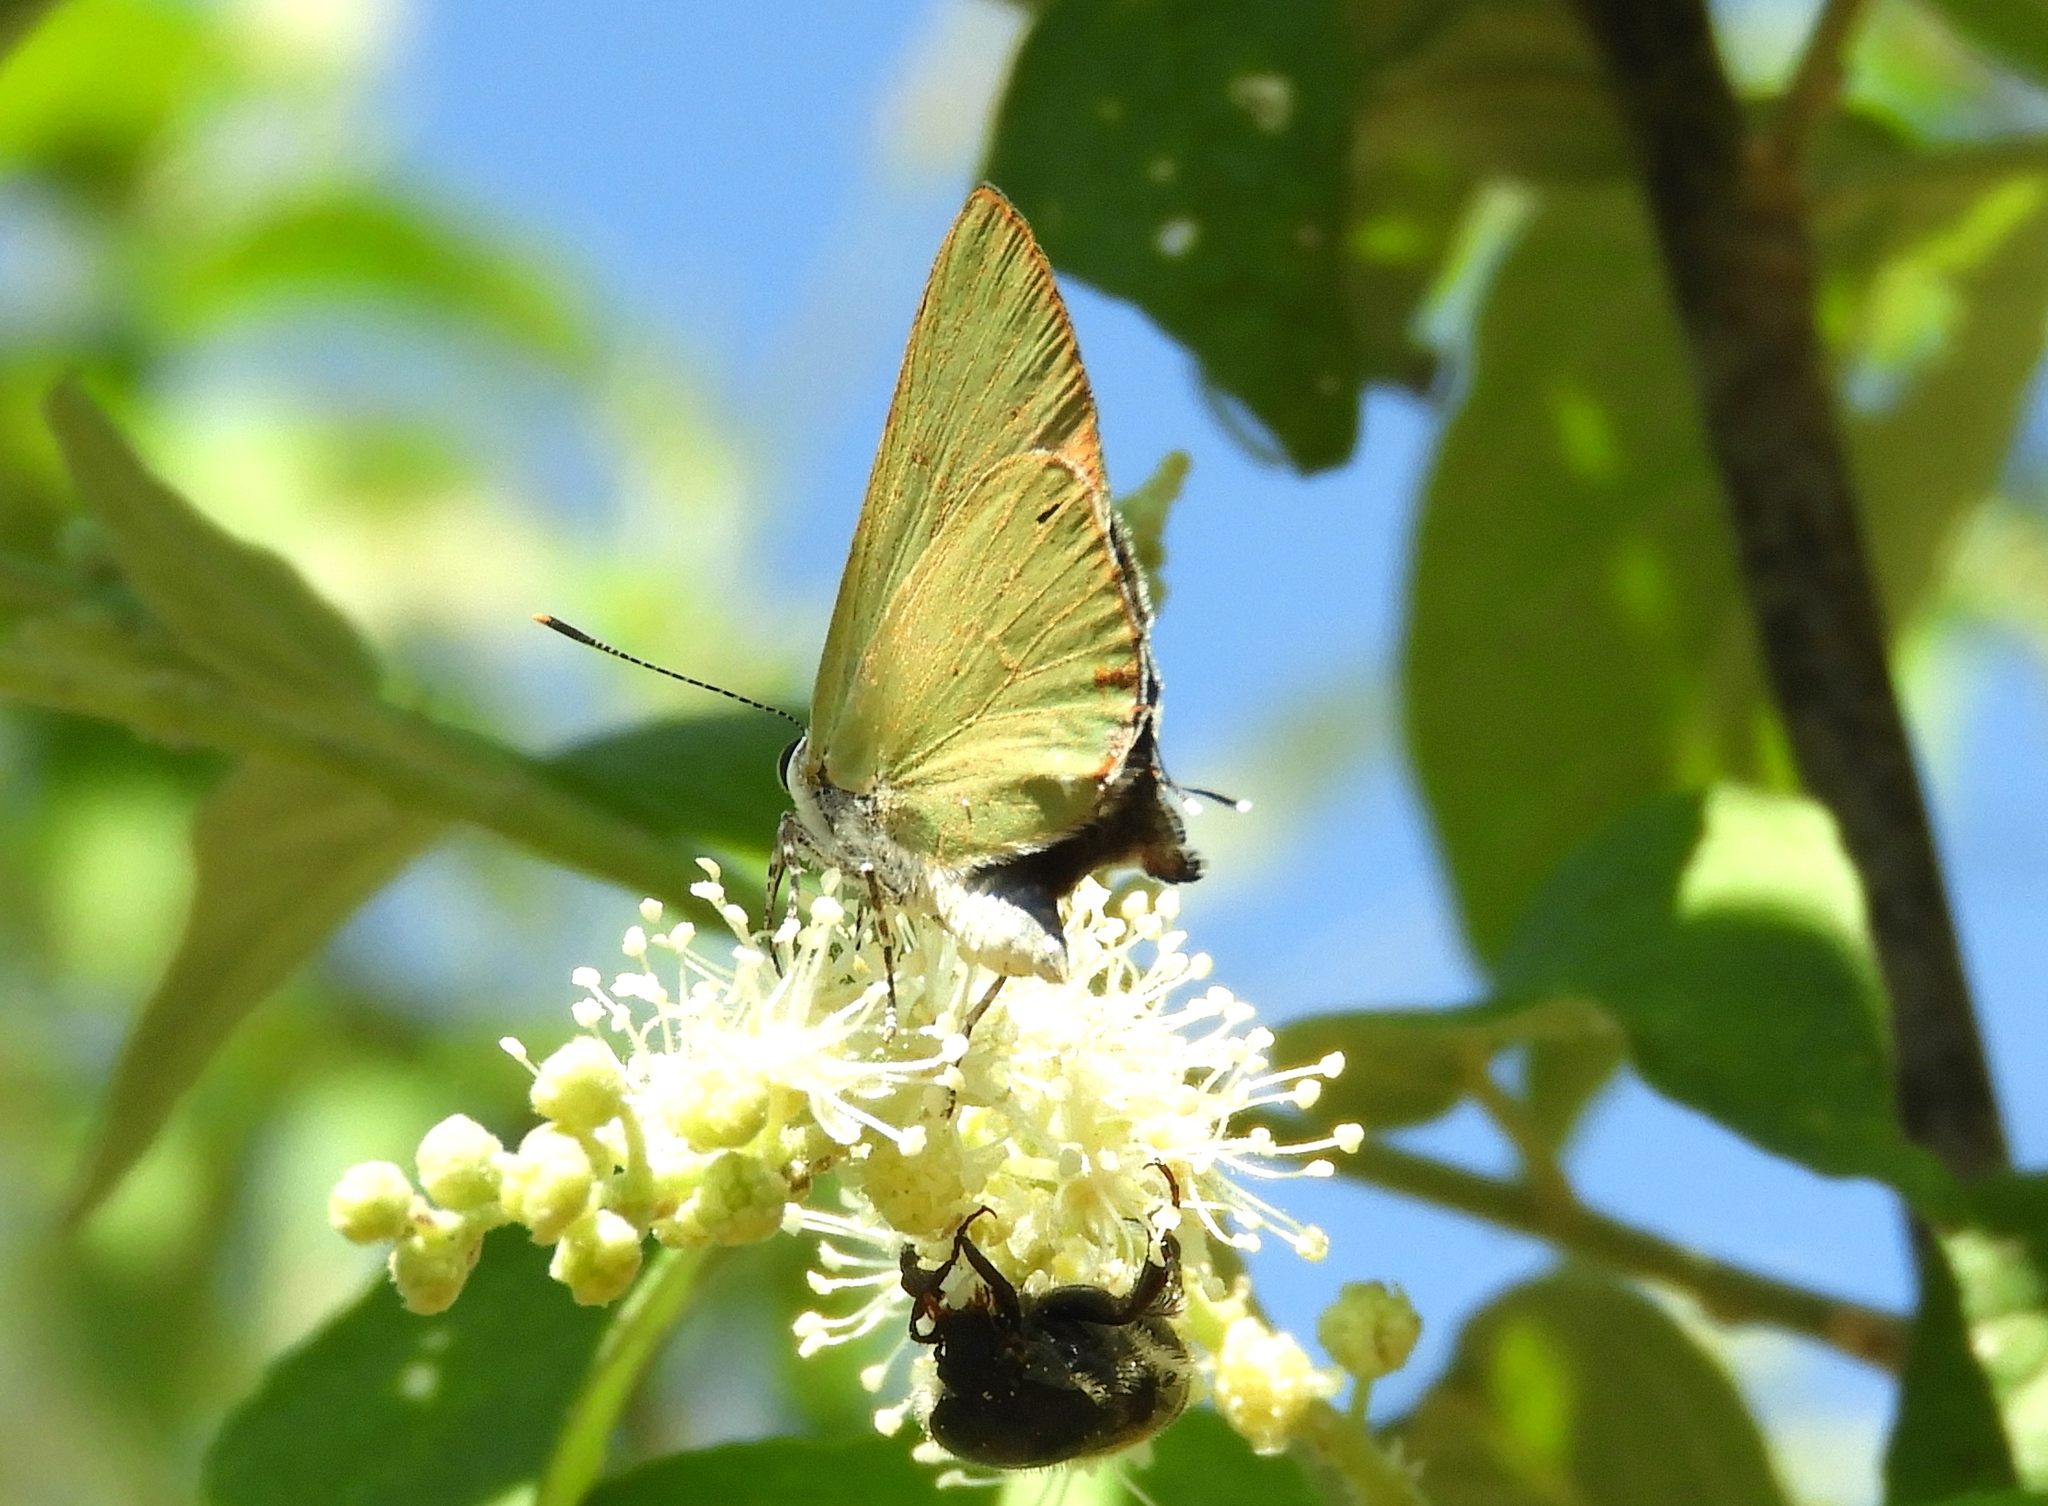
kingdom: Animalia
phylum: Arthropoda
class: Insecta
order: Lepidoptera
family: Lycaenidae
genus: Thecla
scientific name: Thecla herodotus
